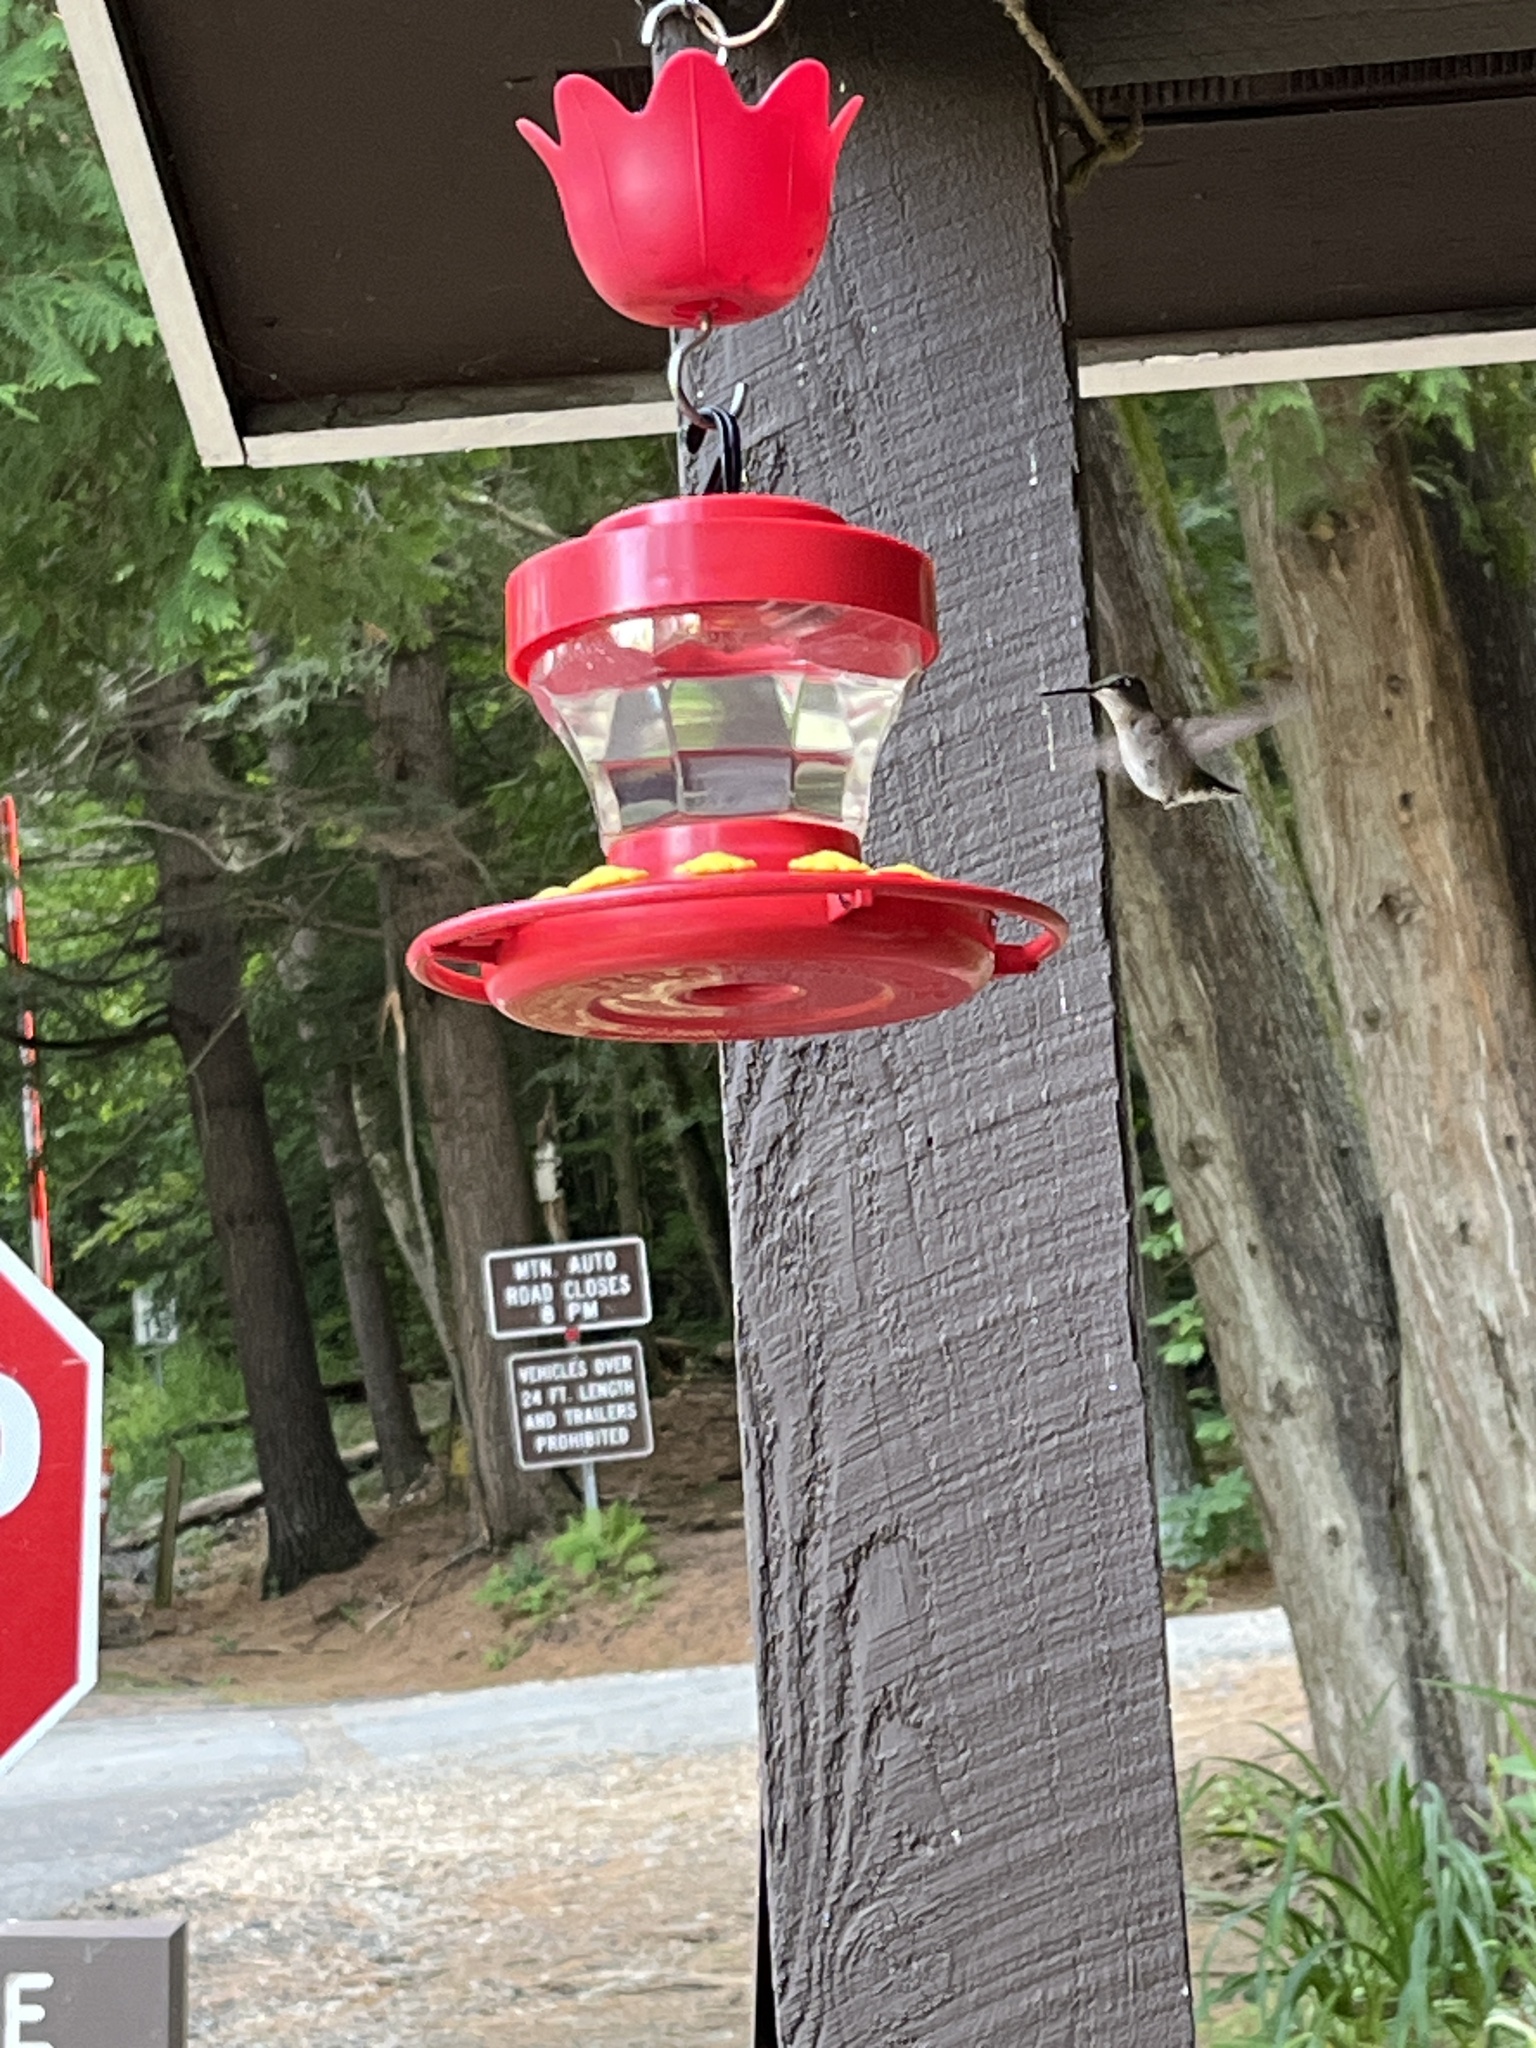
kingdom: Animalia
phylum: Chordata
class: Aves
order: Apodiformes
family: Trochilidae
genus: Archilochus
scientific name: Archilochus colubris
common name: Ruby-throated hummingbird
